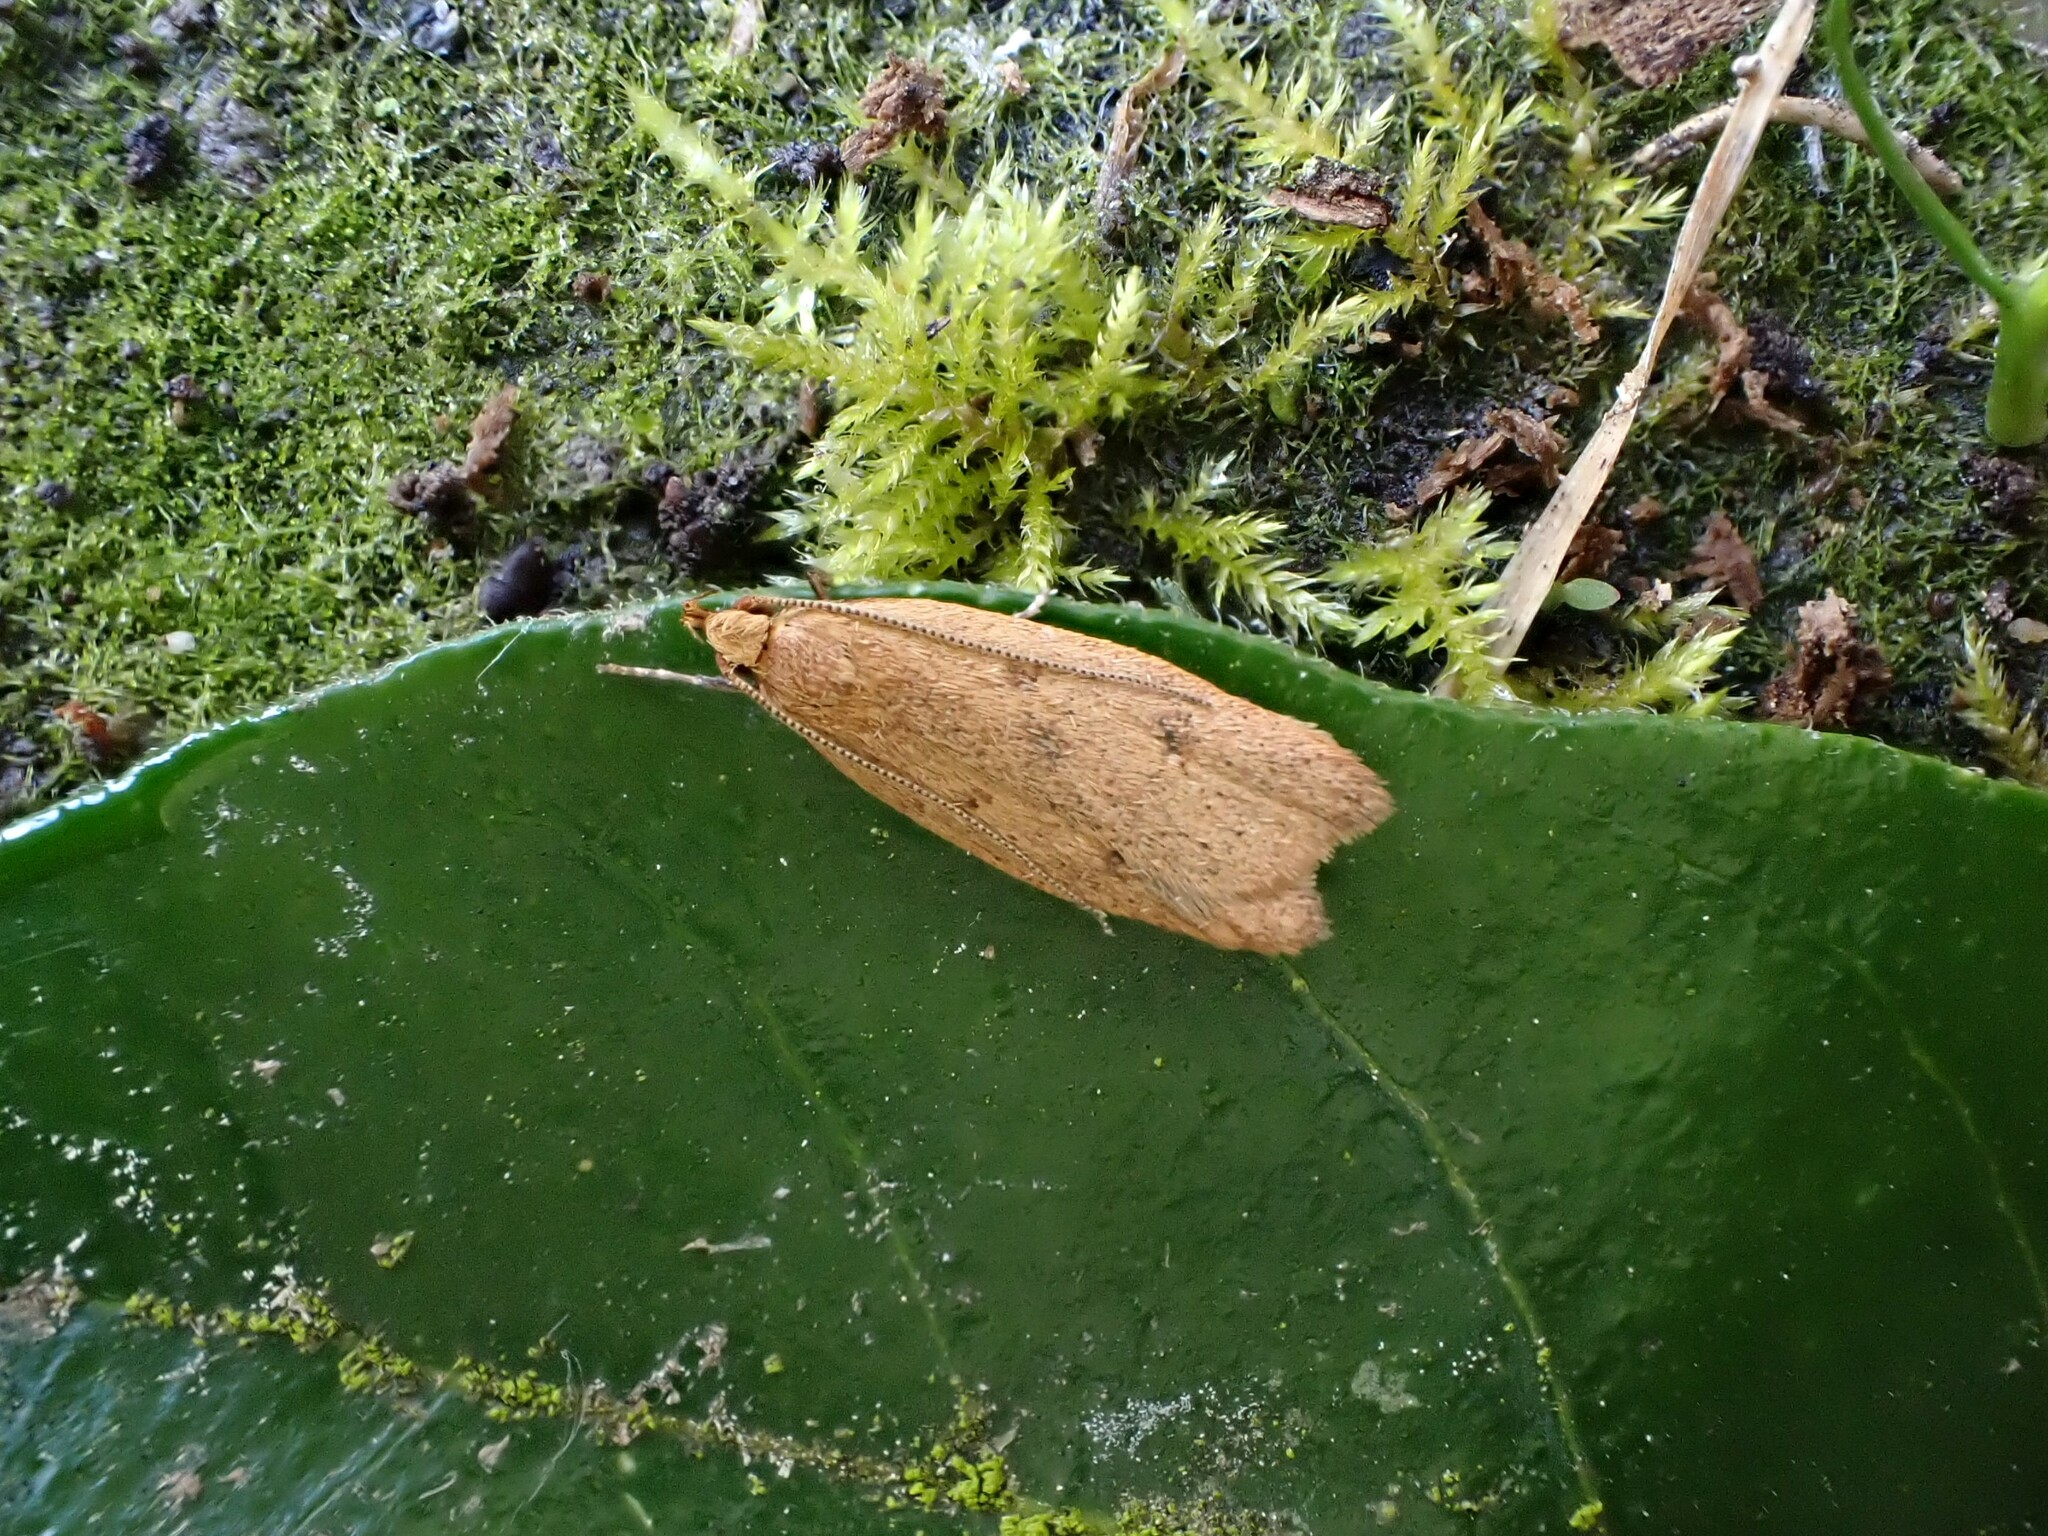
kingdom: Animalia
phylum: Arthropoda
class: Insecta
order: Lepidoptera
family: Oecophoridae
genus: Gymnobathra
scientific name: Gymnobathra sarcoxantha
